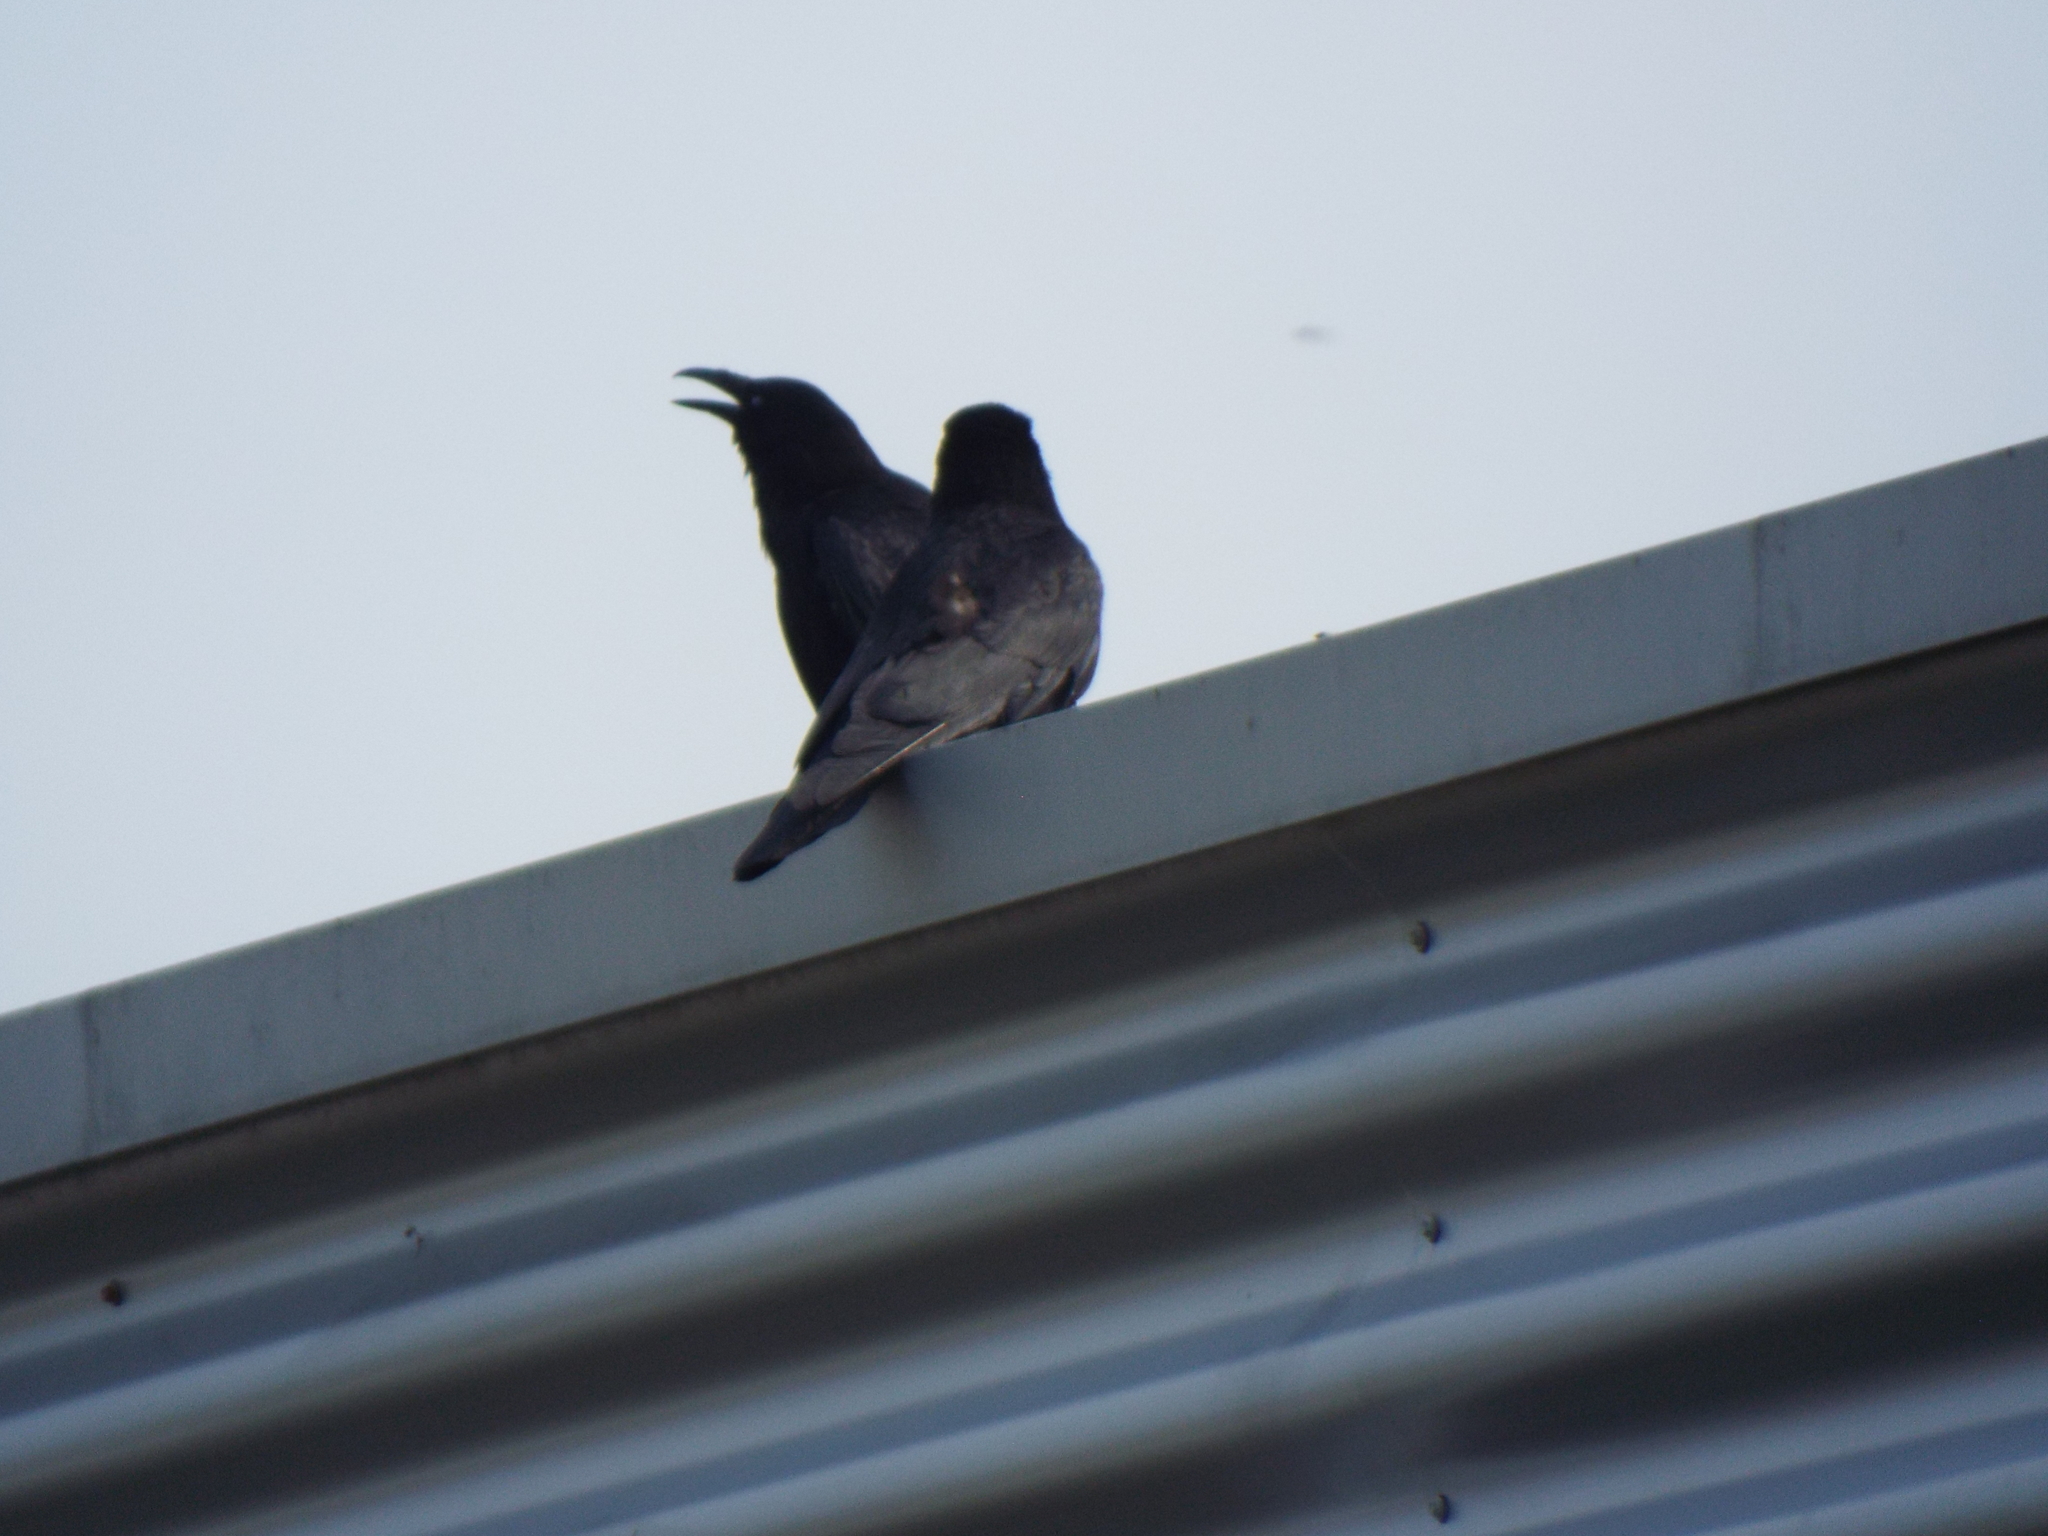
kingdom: Animalia
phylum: Chordata
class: Aves
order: Passeriformes
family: Corvidae
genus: Corvus
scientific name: Corvus corone
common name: Carrion crow
